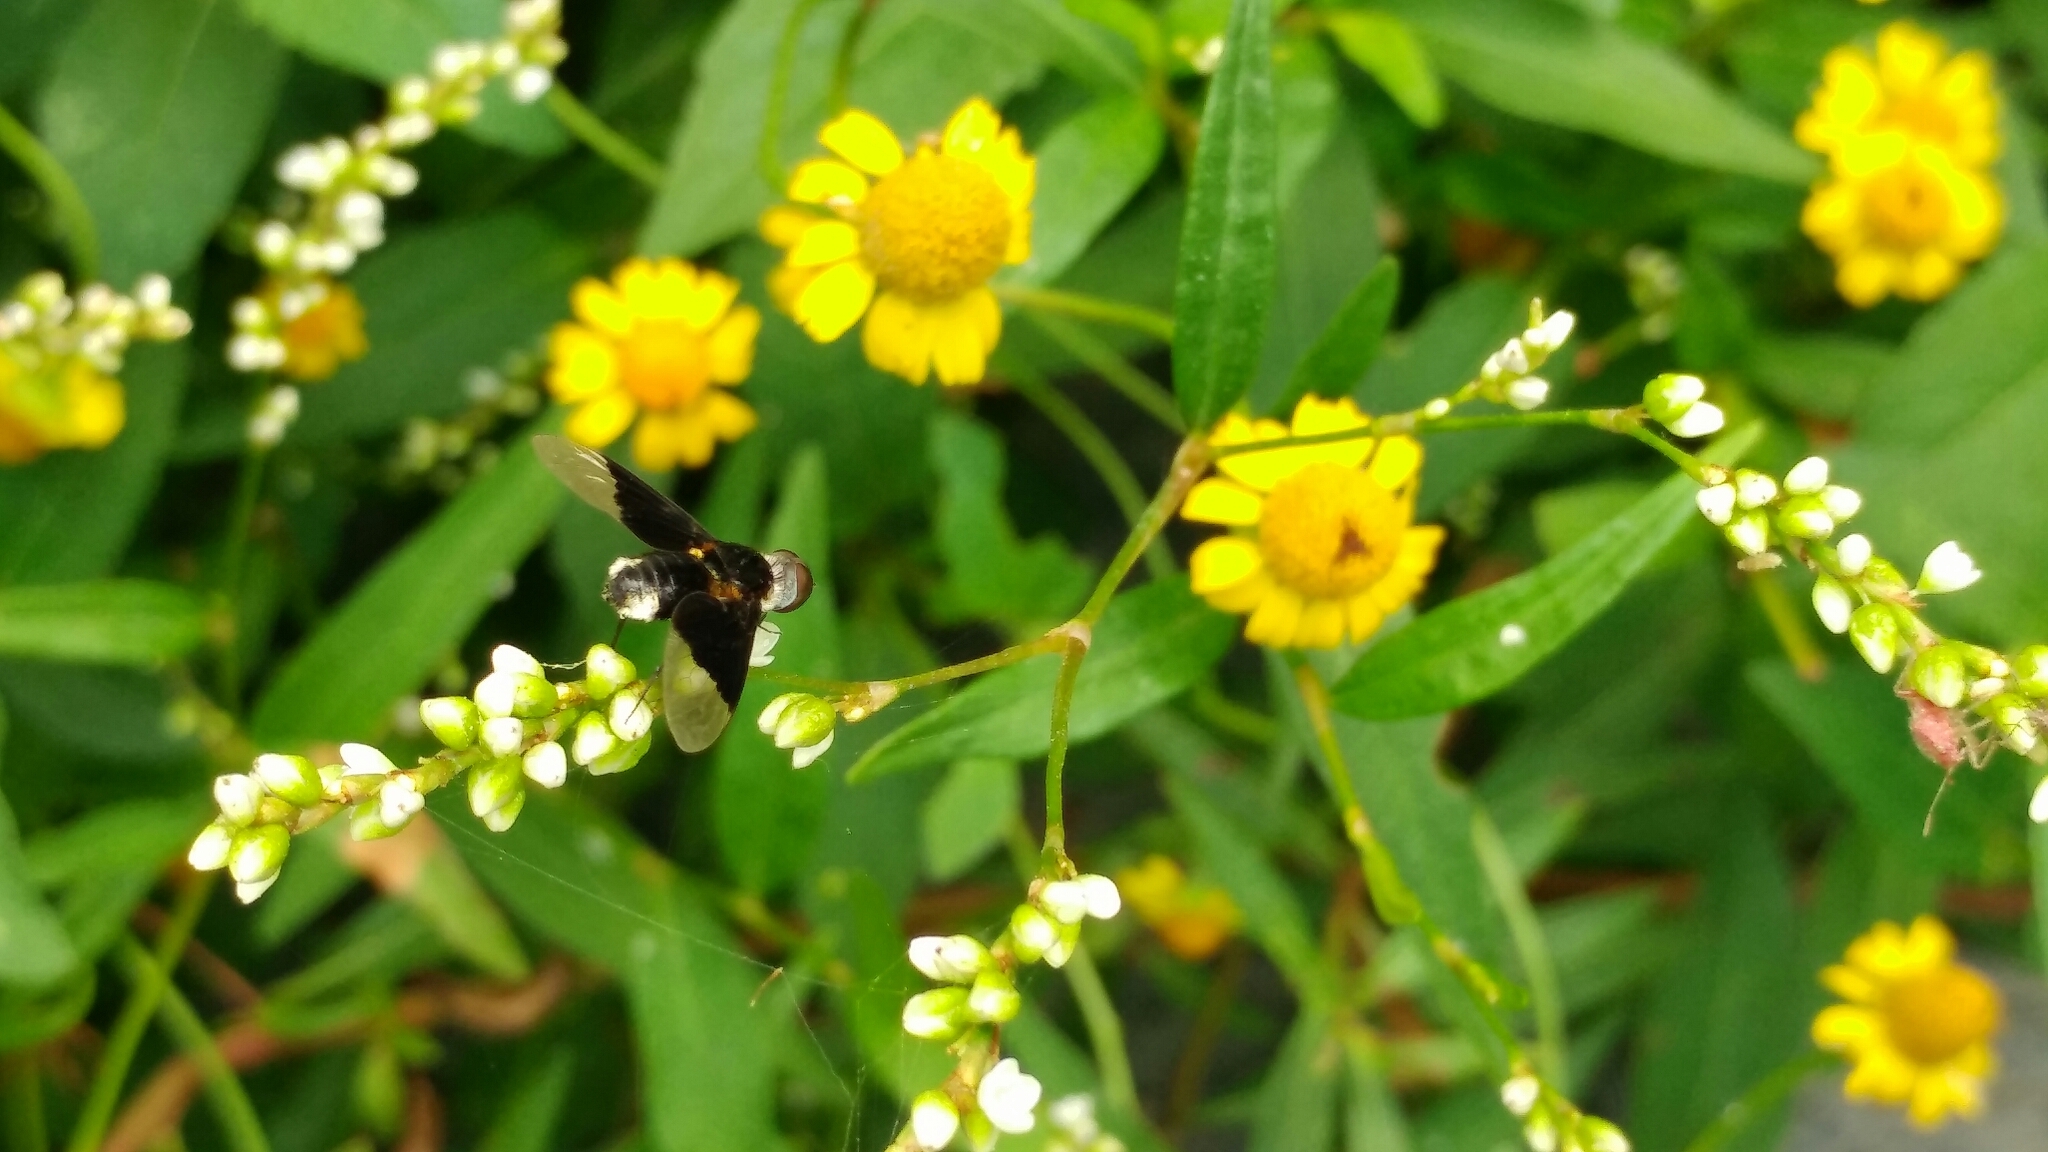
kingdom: Animalia
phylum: Arthropoda
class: Insecta
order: Diptera
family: Bombyliidae
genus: Ins
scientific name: Ins celeris
